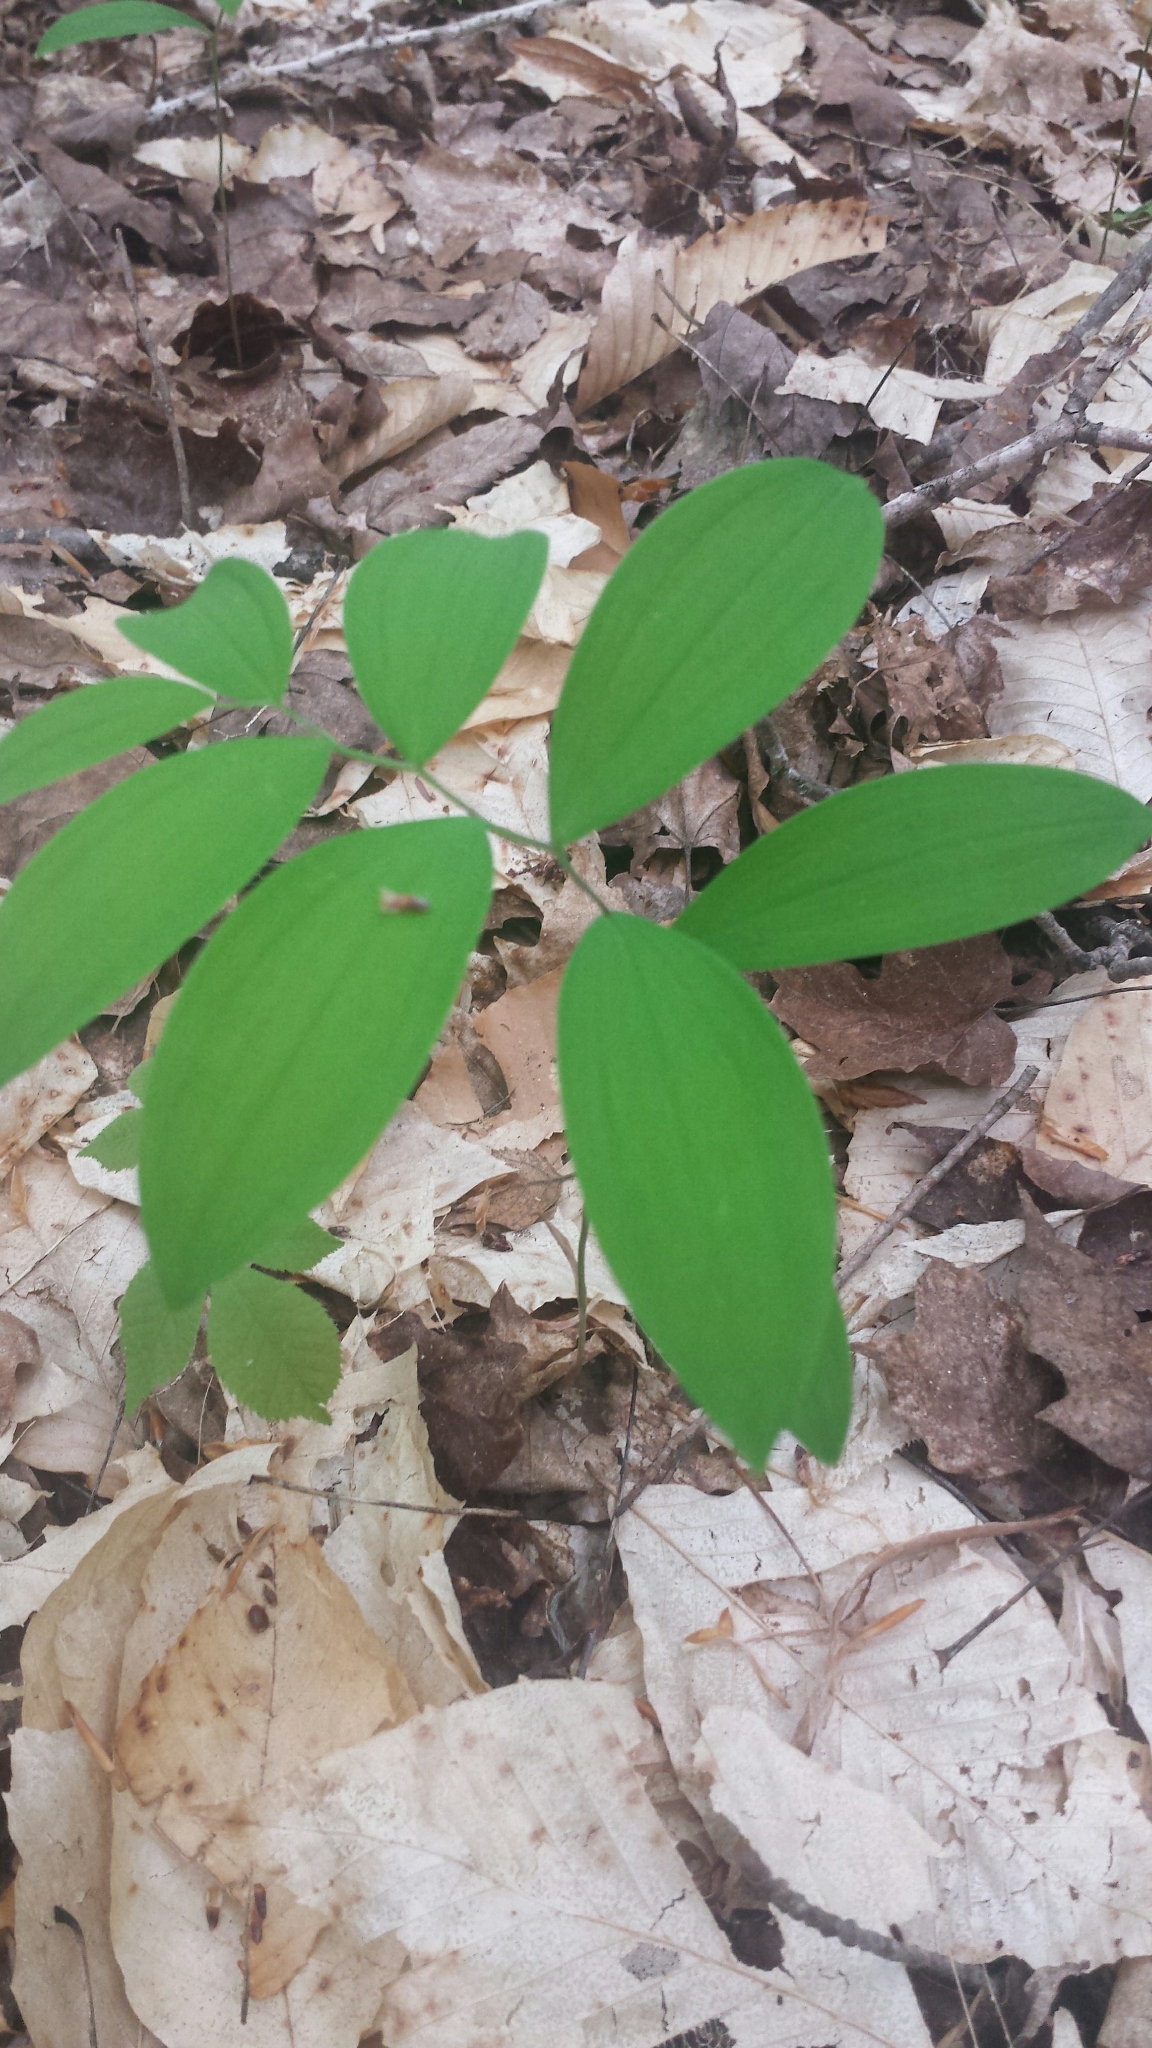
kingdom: Plantae
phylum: Tracheophyta
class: Liliopsida
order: Liliales
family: Colchicaceae
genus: Uvularia
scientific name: Uvularia sessilifolia
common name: Straw-lily
